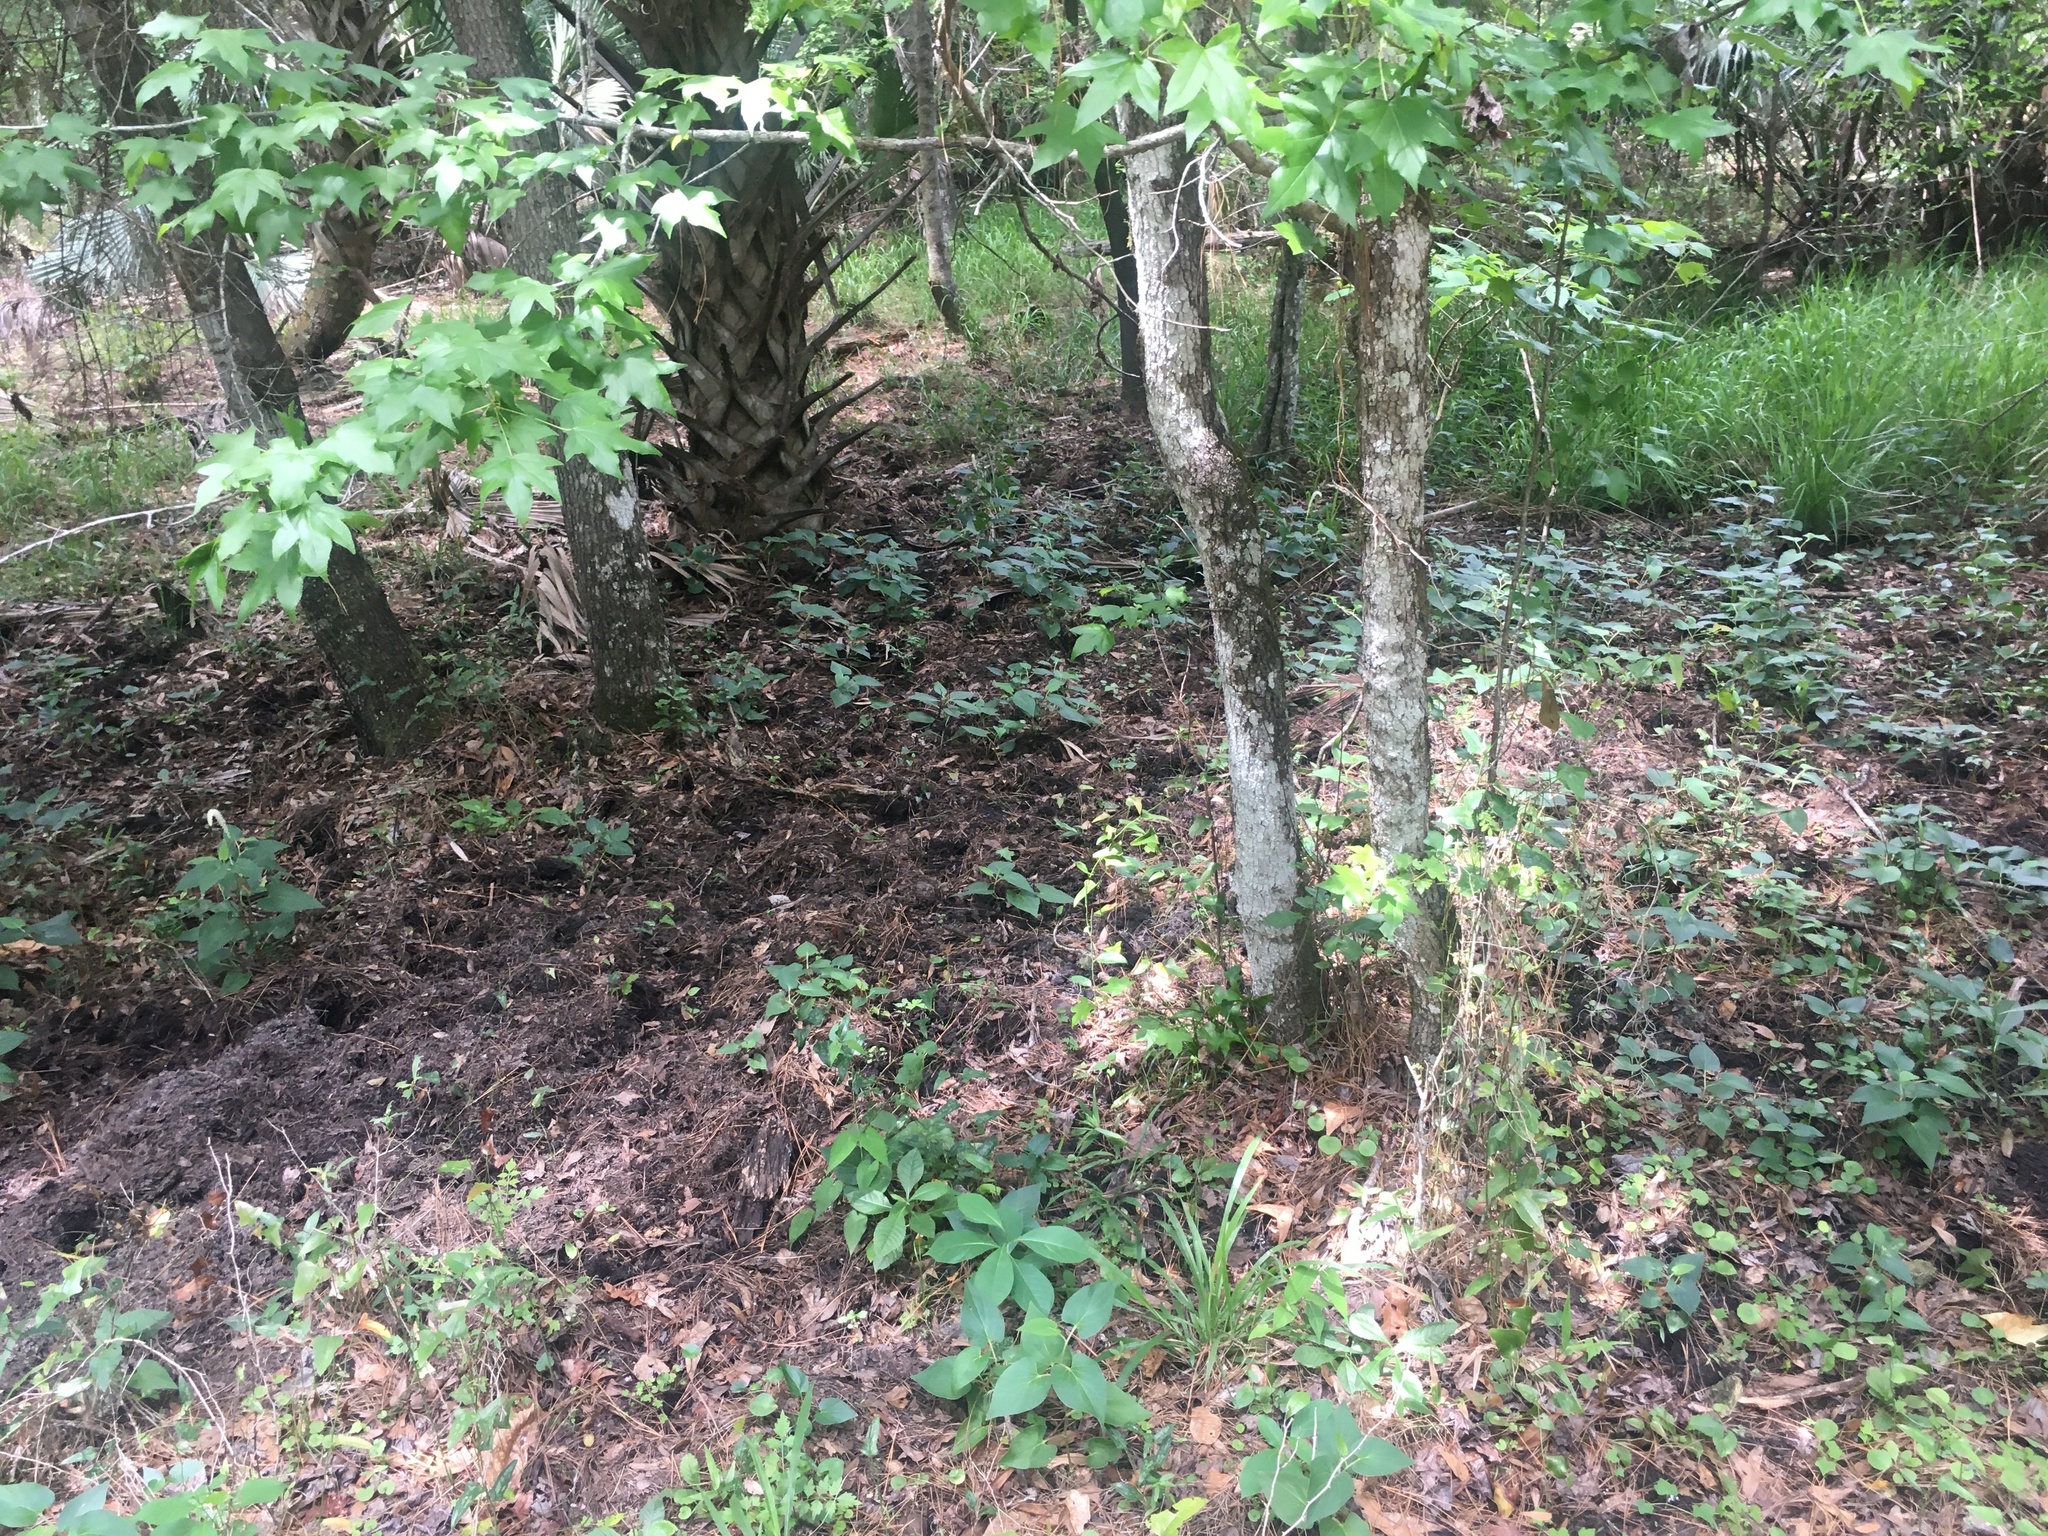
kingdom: Animalia
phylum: Chordata
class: Mammalia
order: Artiodactyla
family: Suidae
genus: Sus
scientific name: Sus scrofa
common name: Wild boar
